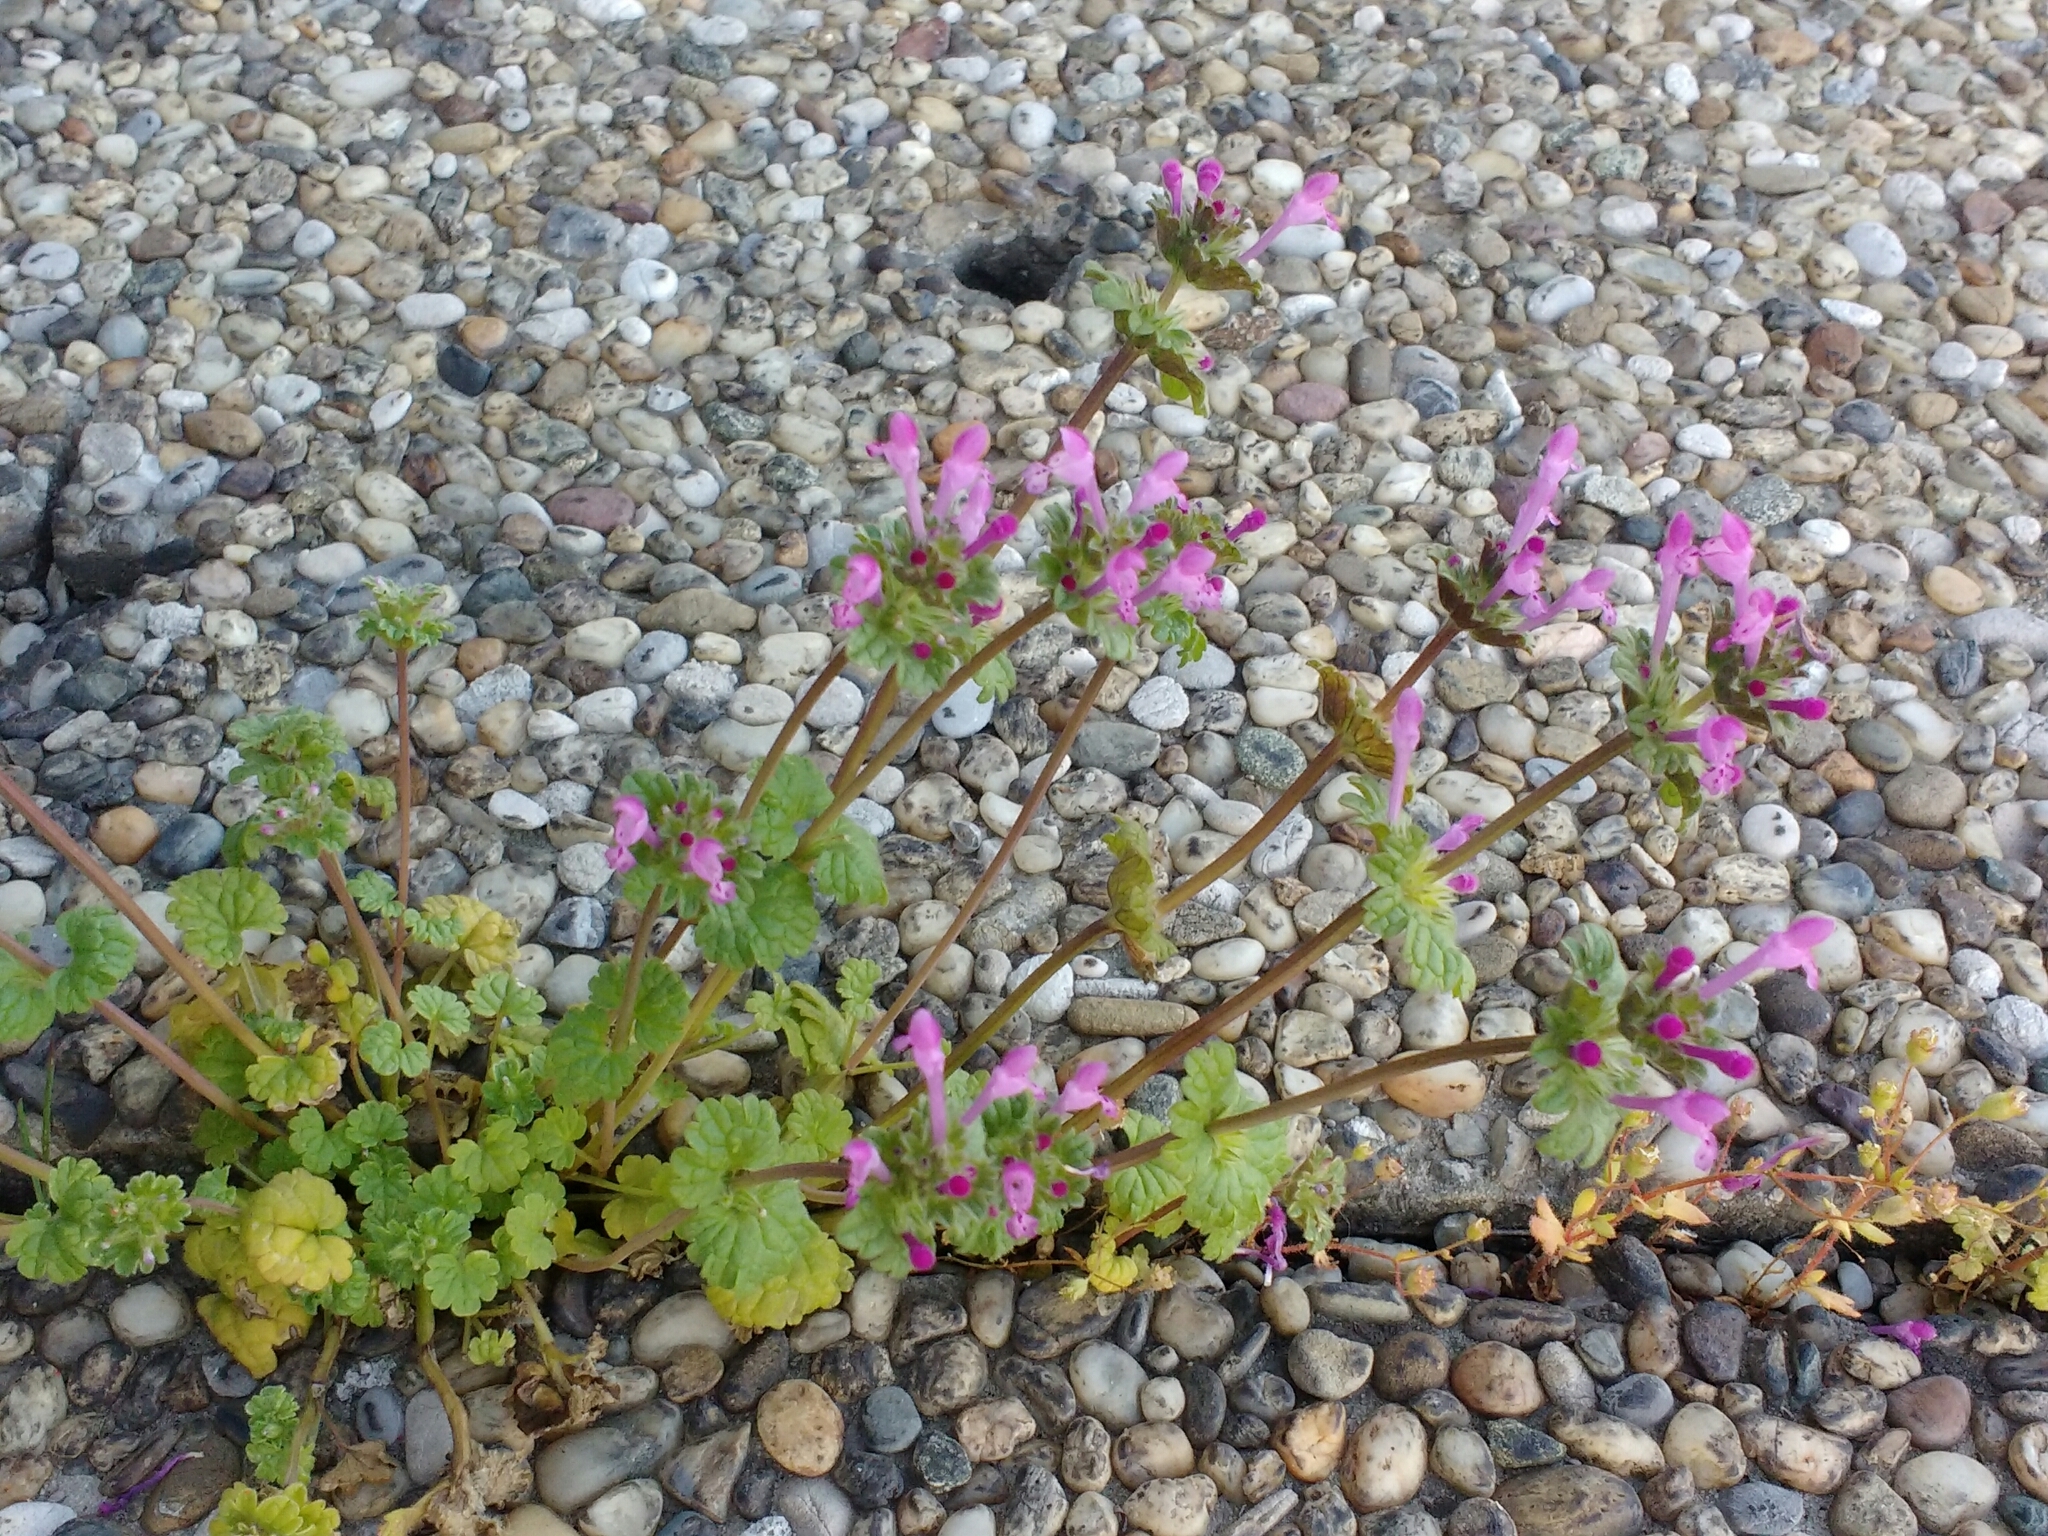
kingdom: Plantae
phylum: Tracheophyta
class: Magnoliopsida
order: Lamiales
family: Lamiaceae
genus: Lamium
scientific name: Lamium amplexicaule
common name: Henbit dead-nettle
